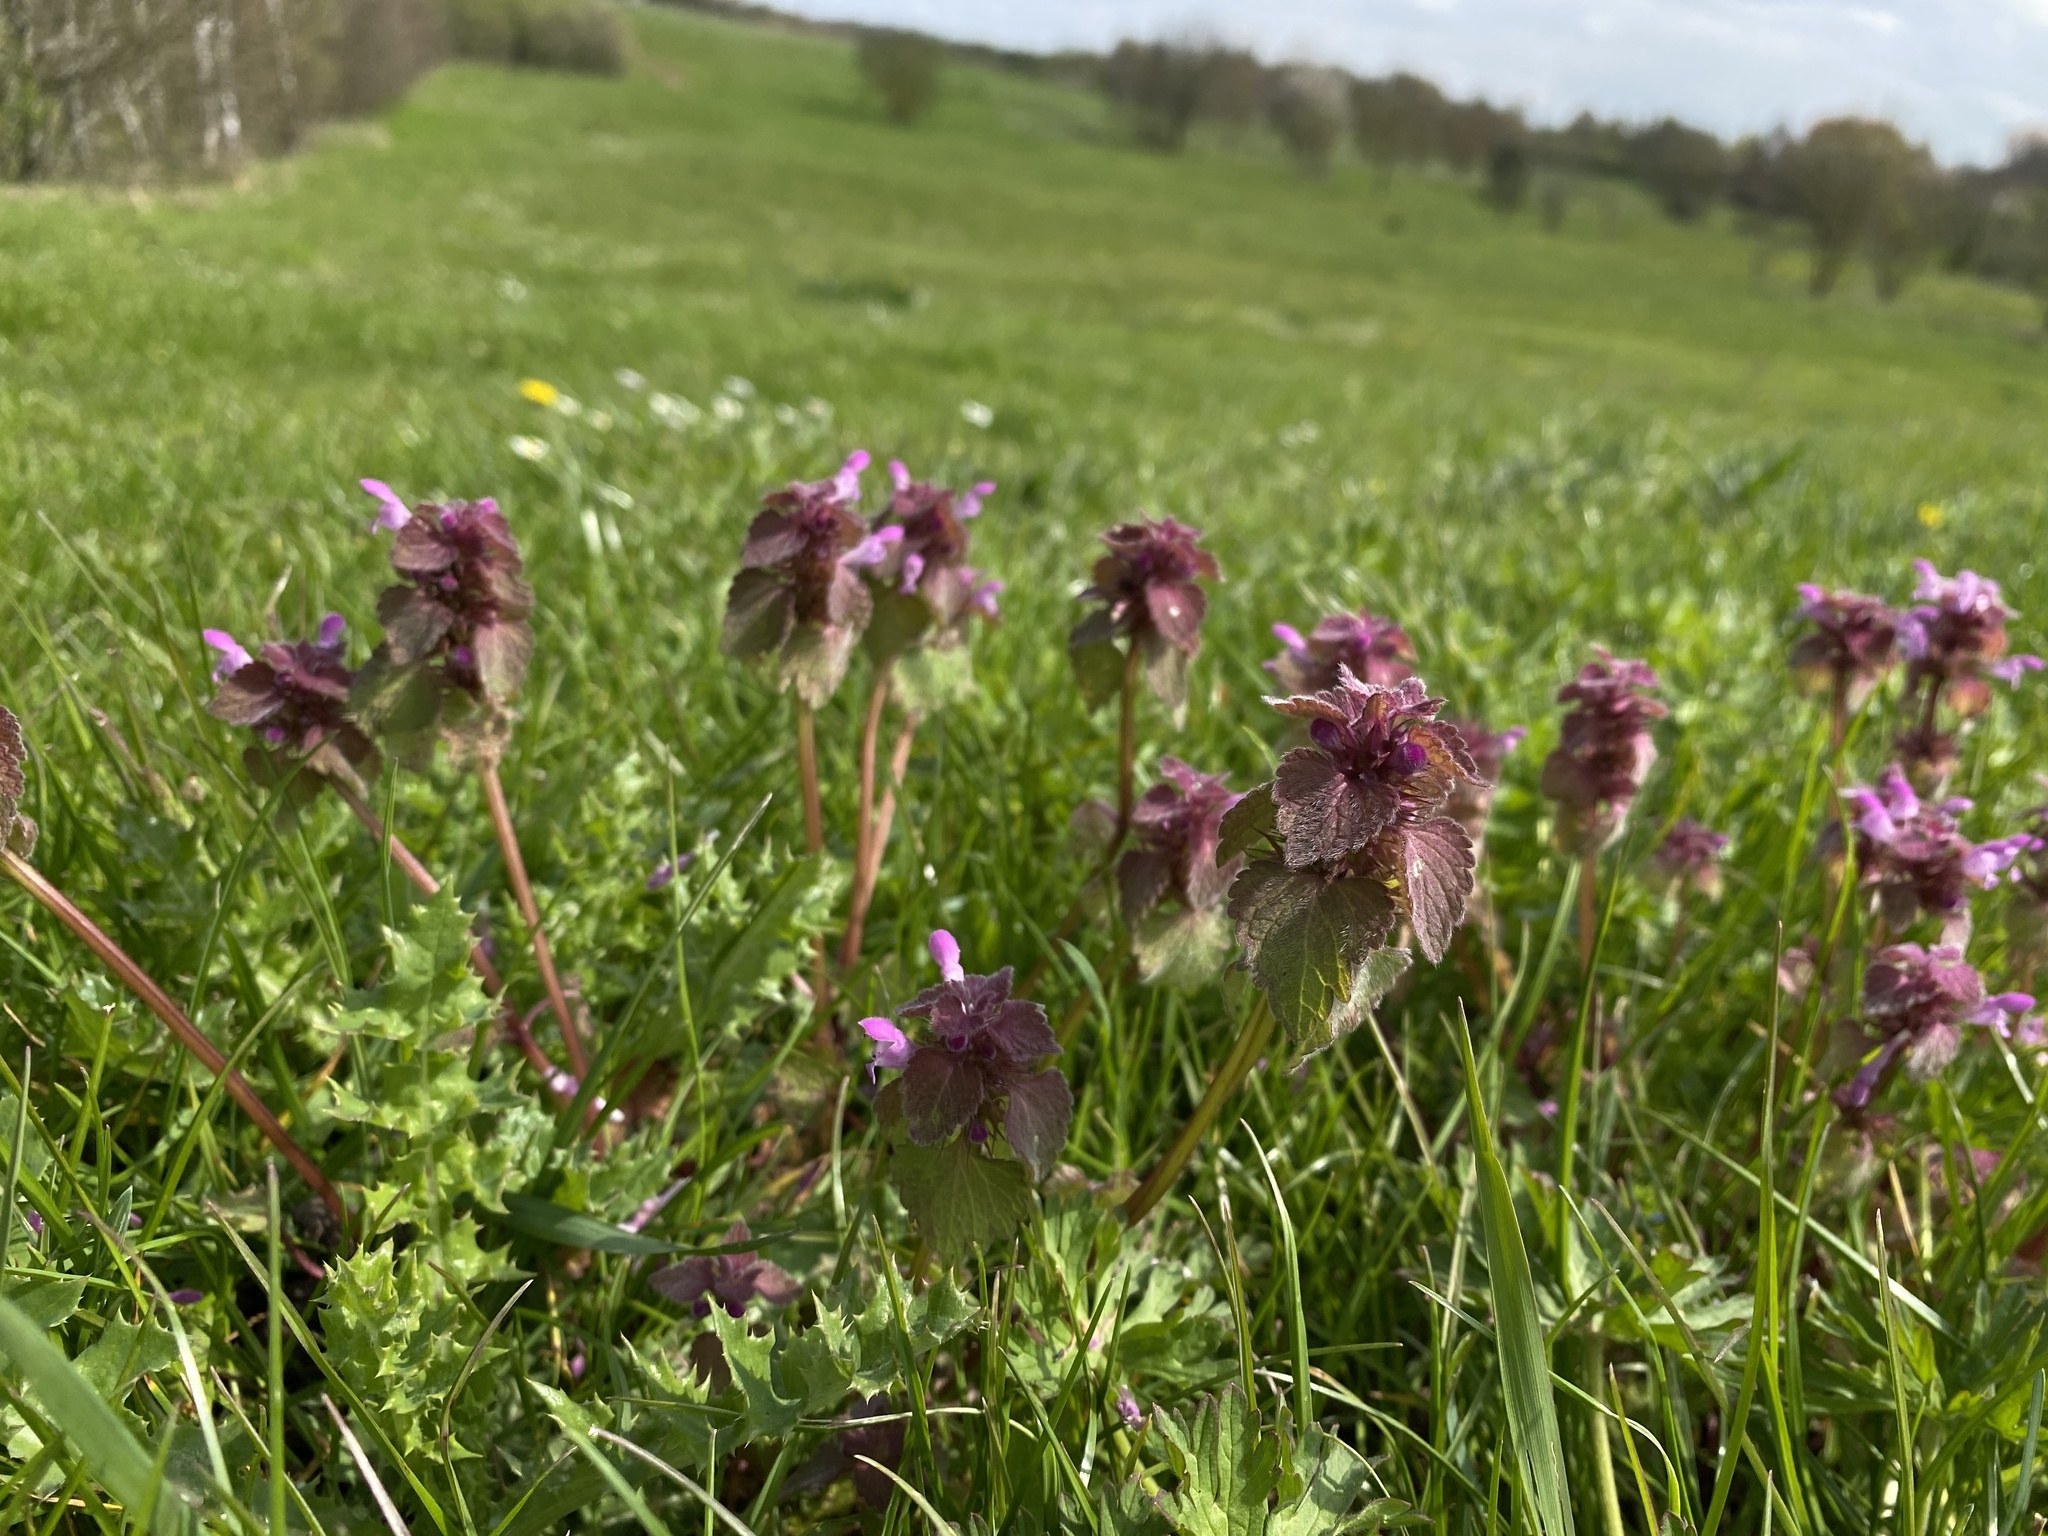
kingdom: Plantae
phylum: Tracheophyta
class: Magnoliopsida
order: Lamiales
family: Lamiaceae
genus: Lamium
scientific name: Lamium purpureum
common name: Red dead-nettle
